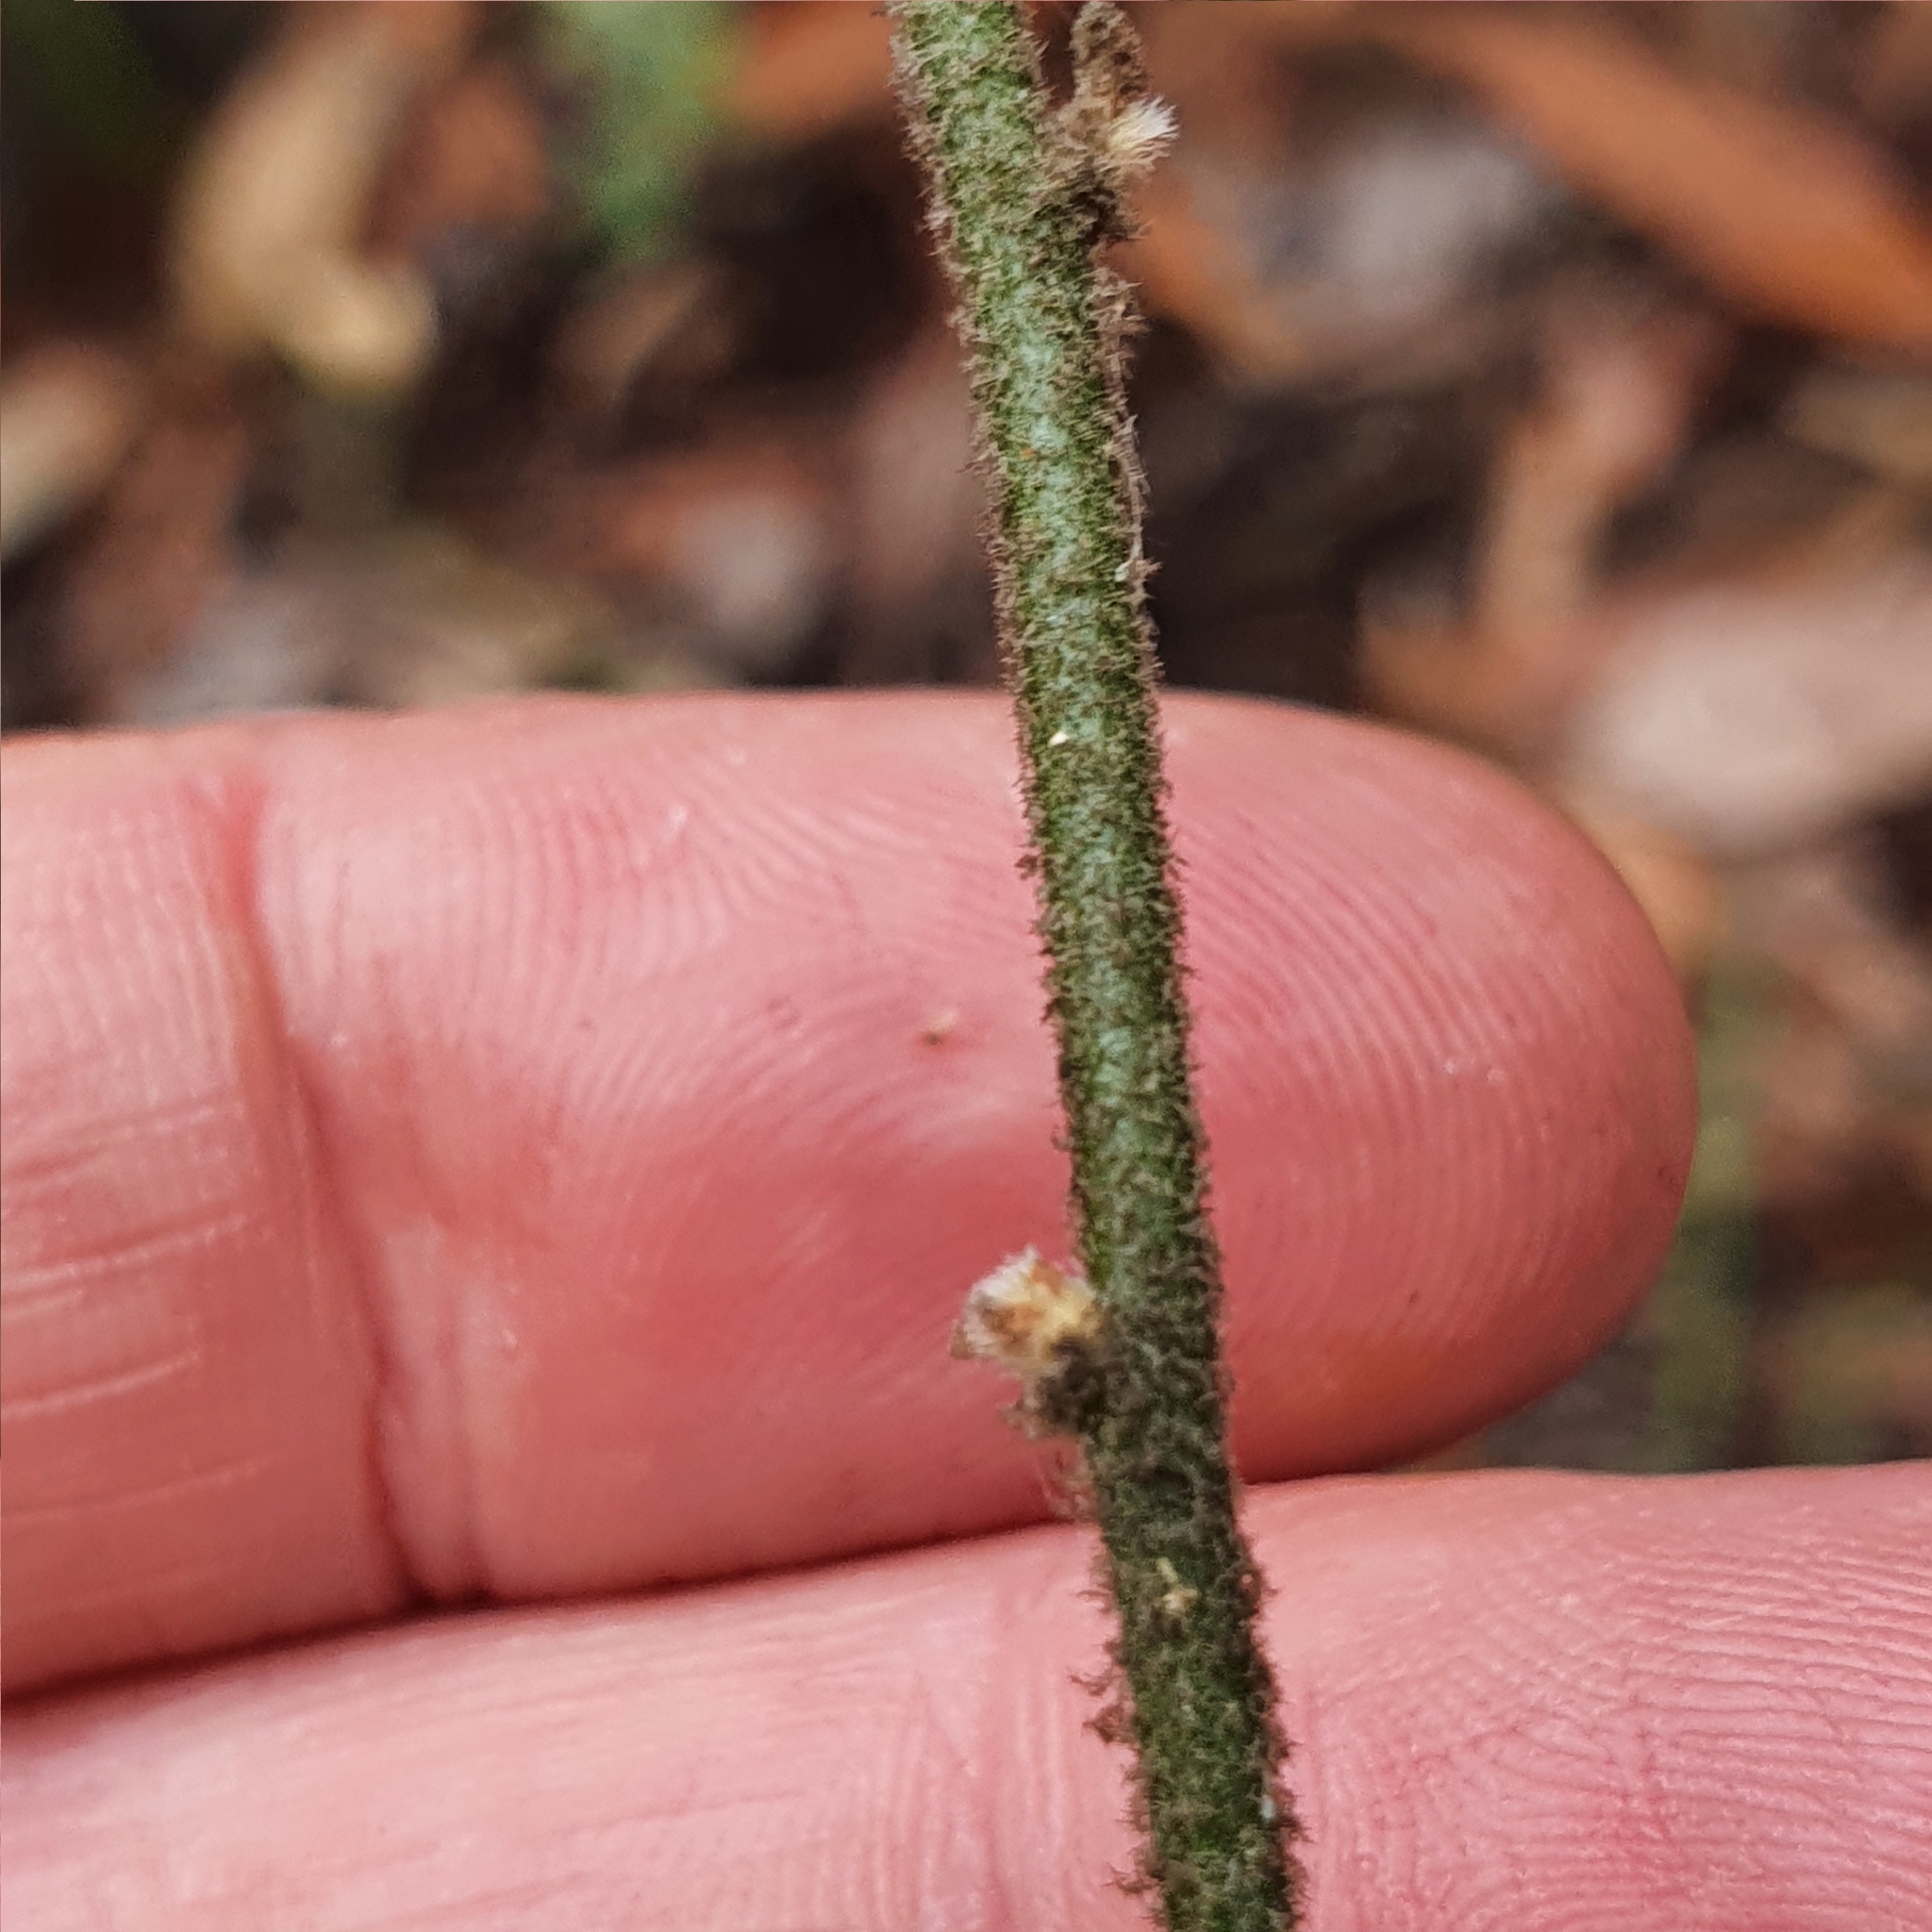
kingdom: Plantae
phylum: Tracheophyta
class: Magnoliopsida
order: Asterales
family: Goodeniaceae
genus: Dampiera
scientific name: Dampiera purpurea
